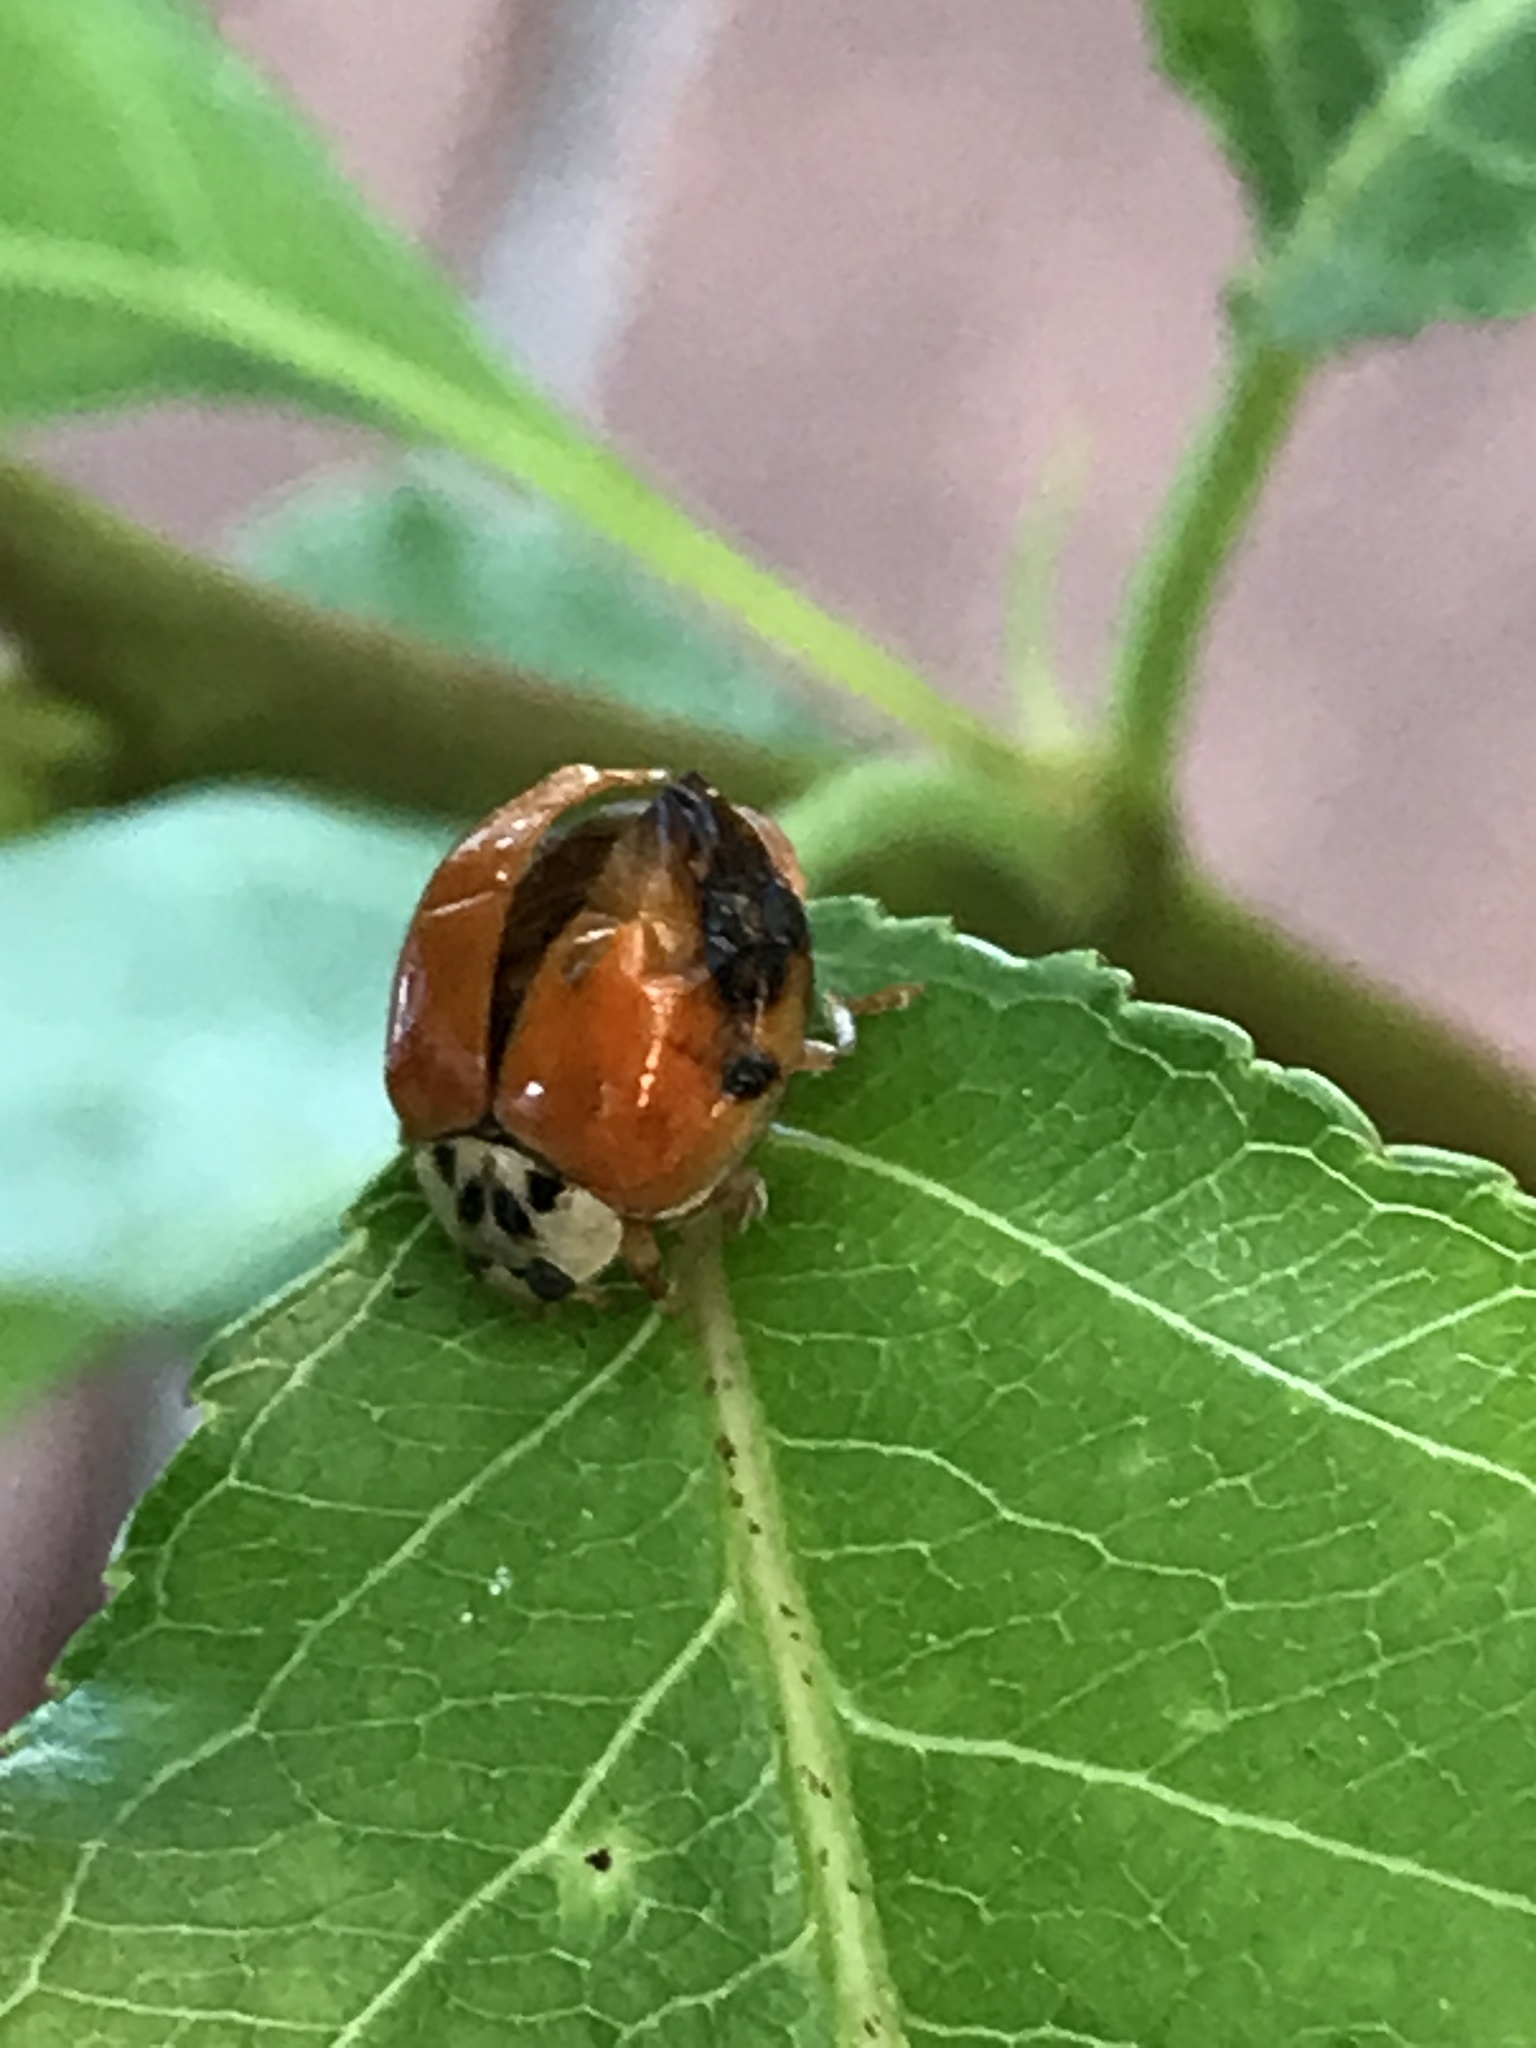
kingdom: Animalia
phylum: Arthropoda
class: Insecta
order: Coleoptera
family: Coccinellidae
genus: Harmonia
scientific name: Harmonia axyridis
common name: Harlequin ladybird
